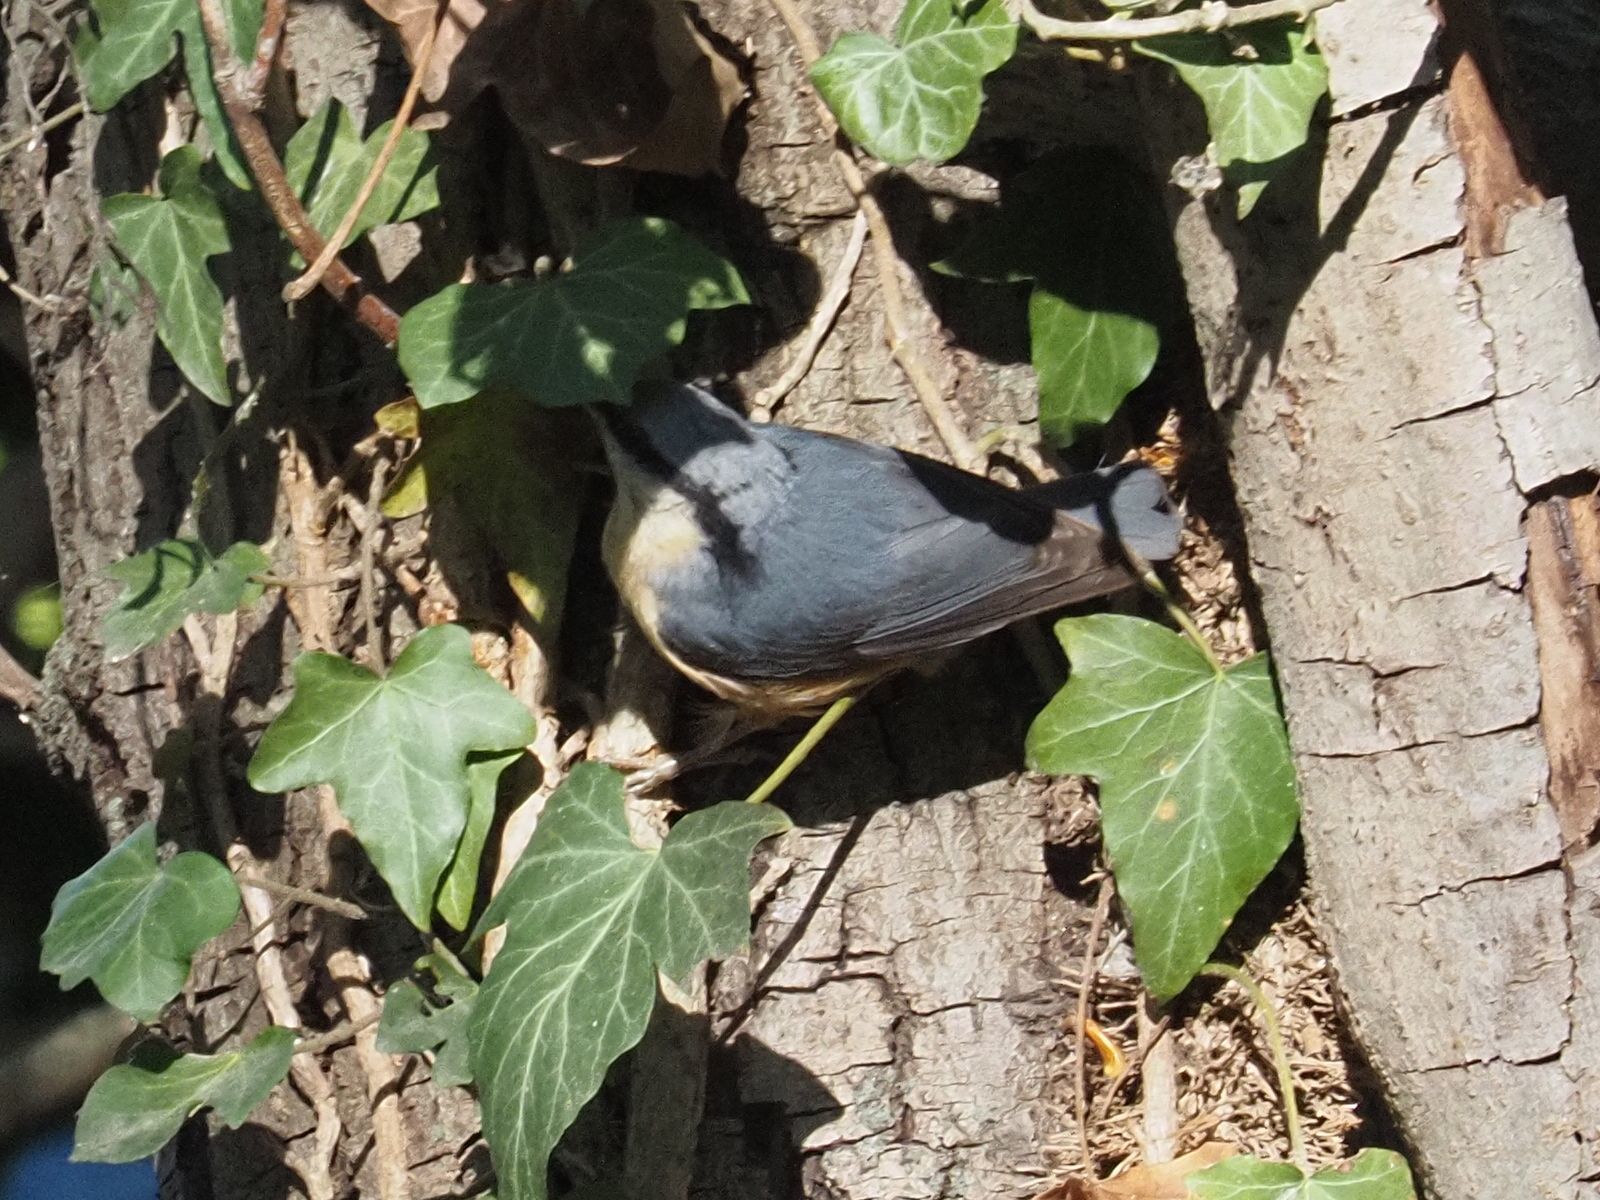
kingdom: Animalia
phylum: Chordata
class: Aves
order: Passeriformes
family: Sittidae
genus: Sitta
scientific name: Sitta europaea
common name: Eurasian nuthatch
